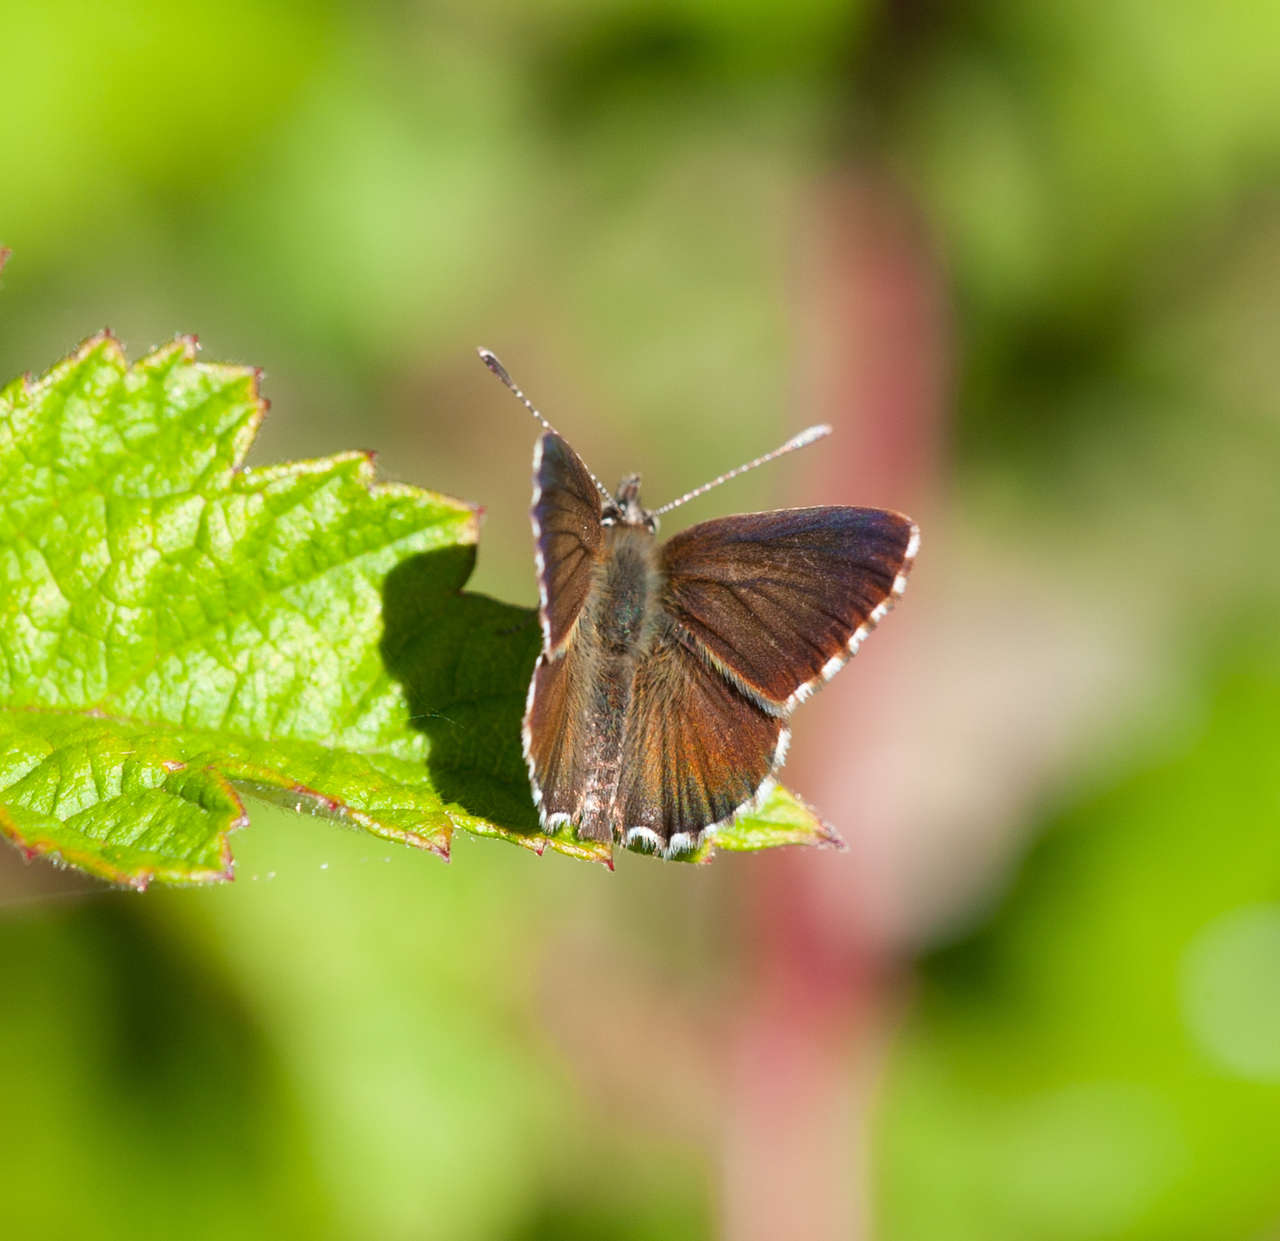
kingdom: Animalia
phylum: Arthropoda
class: Insecta
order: Lepidoptera
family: Lycaenidae
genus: Neolucia
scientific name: Neolucia agricola
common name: Fringed blue
